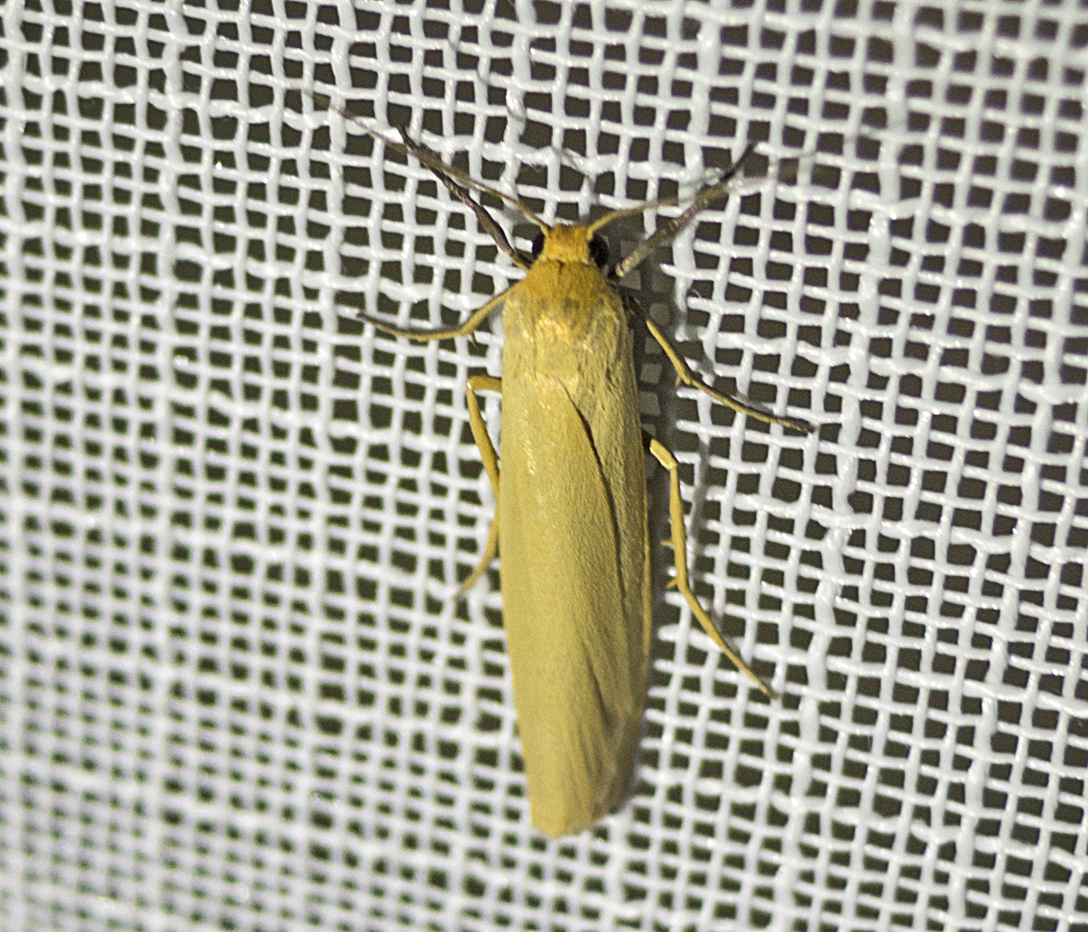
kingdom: Animalia
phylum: Arthropoda
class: Insecta
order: Lepidoptera
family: Erebidae
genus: Indalia
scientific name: Indalia lutarella
